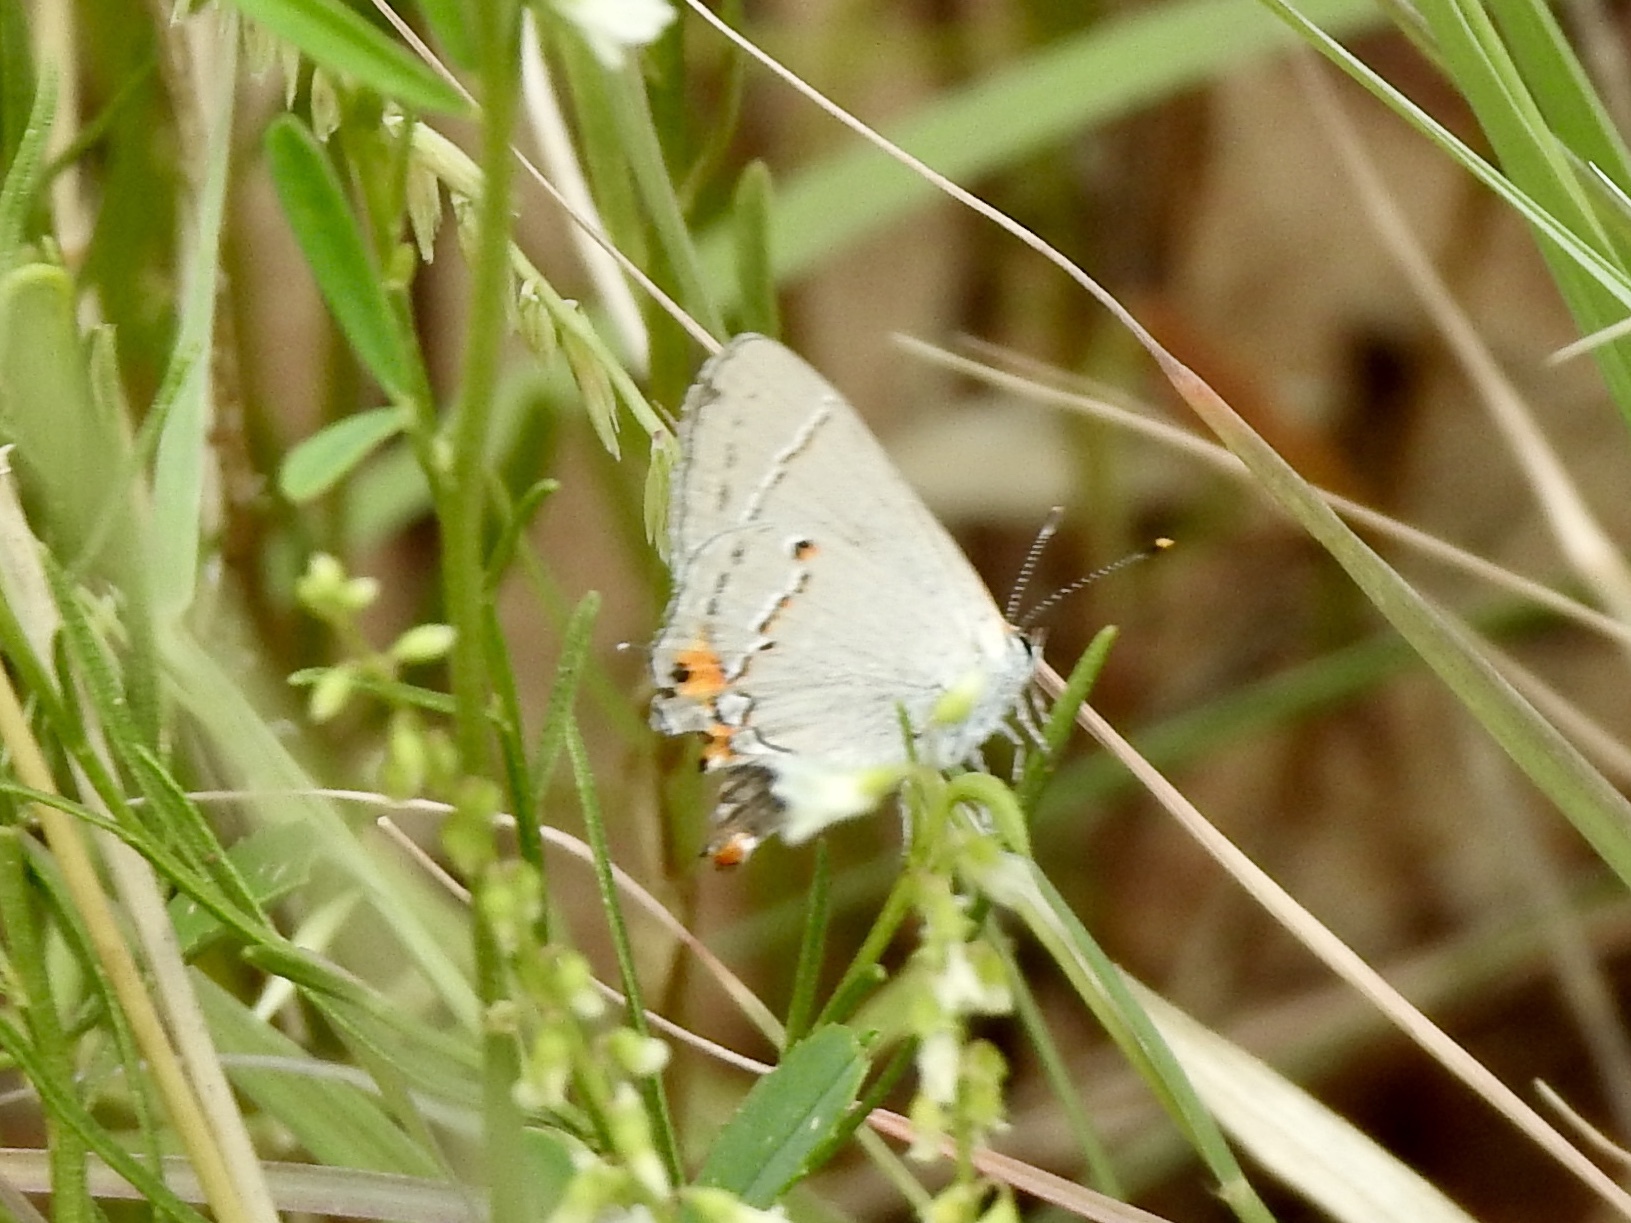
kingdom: Animalia
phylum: Arthropoda
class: Insecta
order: Lepidoptera
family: Lycaenidae
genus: Strymon
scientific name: Strymon melinus
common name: Gray hairstreak
